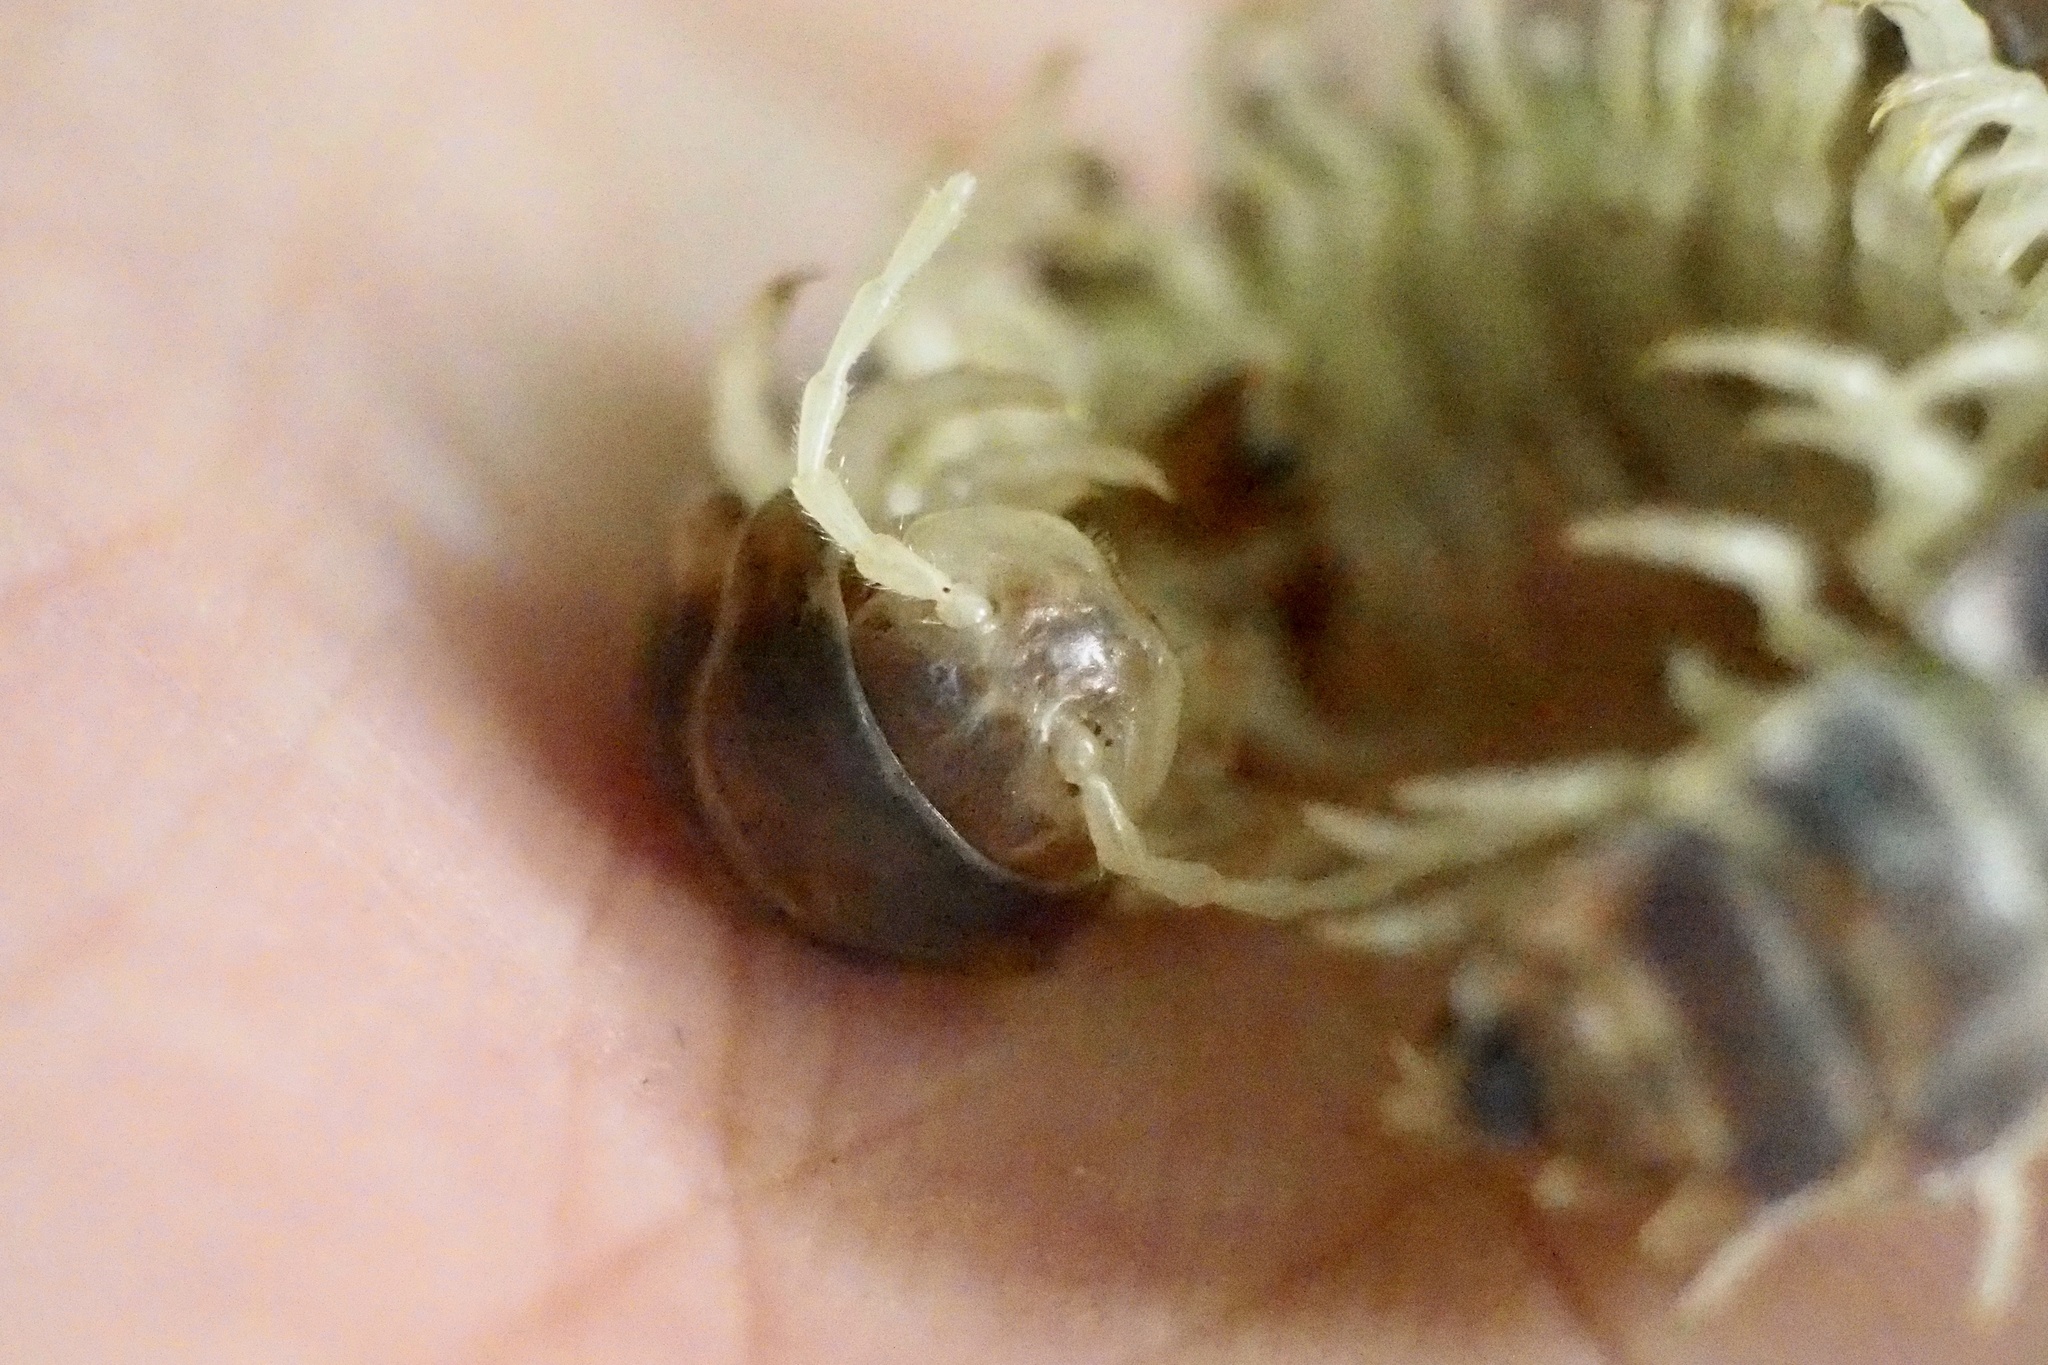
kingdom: Animalia
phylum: Arthropoda
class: Diplopoda
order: Polydesmida
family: Xystodesmidae
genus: Parafontaria
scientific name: Parafontaria tonominea
